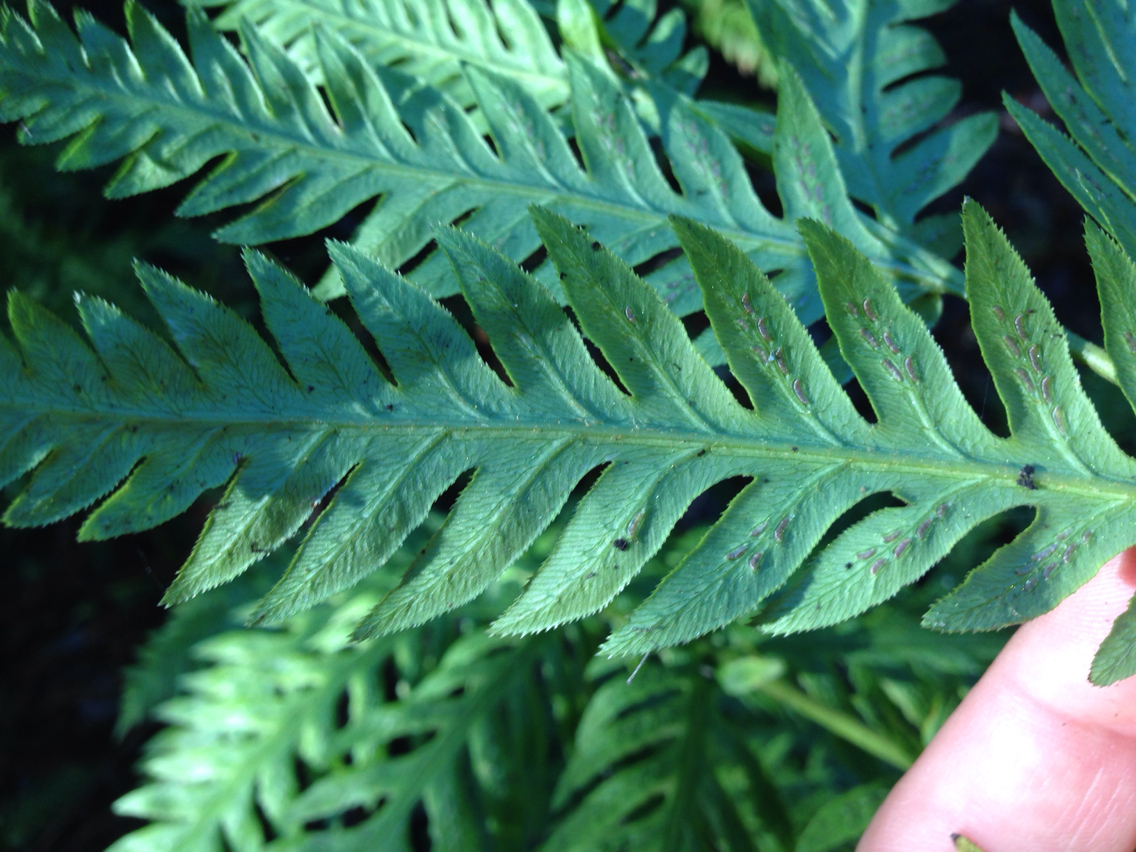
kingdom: Plantae
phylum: Tracheophyta
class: Polypodiopsida
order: Polypodiales
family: Blechnaceae
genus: Woodwardia
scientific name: Woodwardia fimbriata
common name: Giant chain fern
